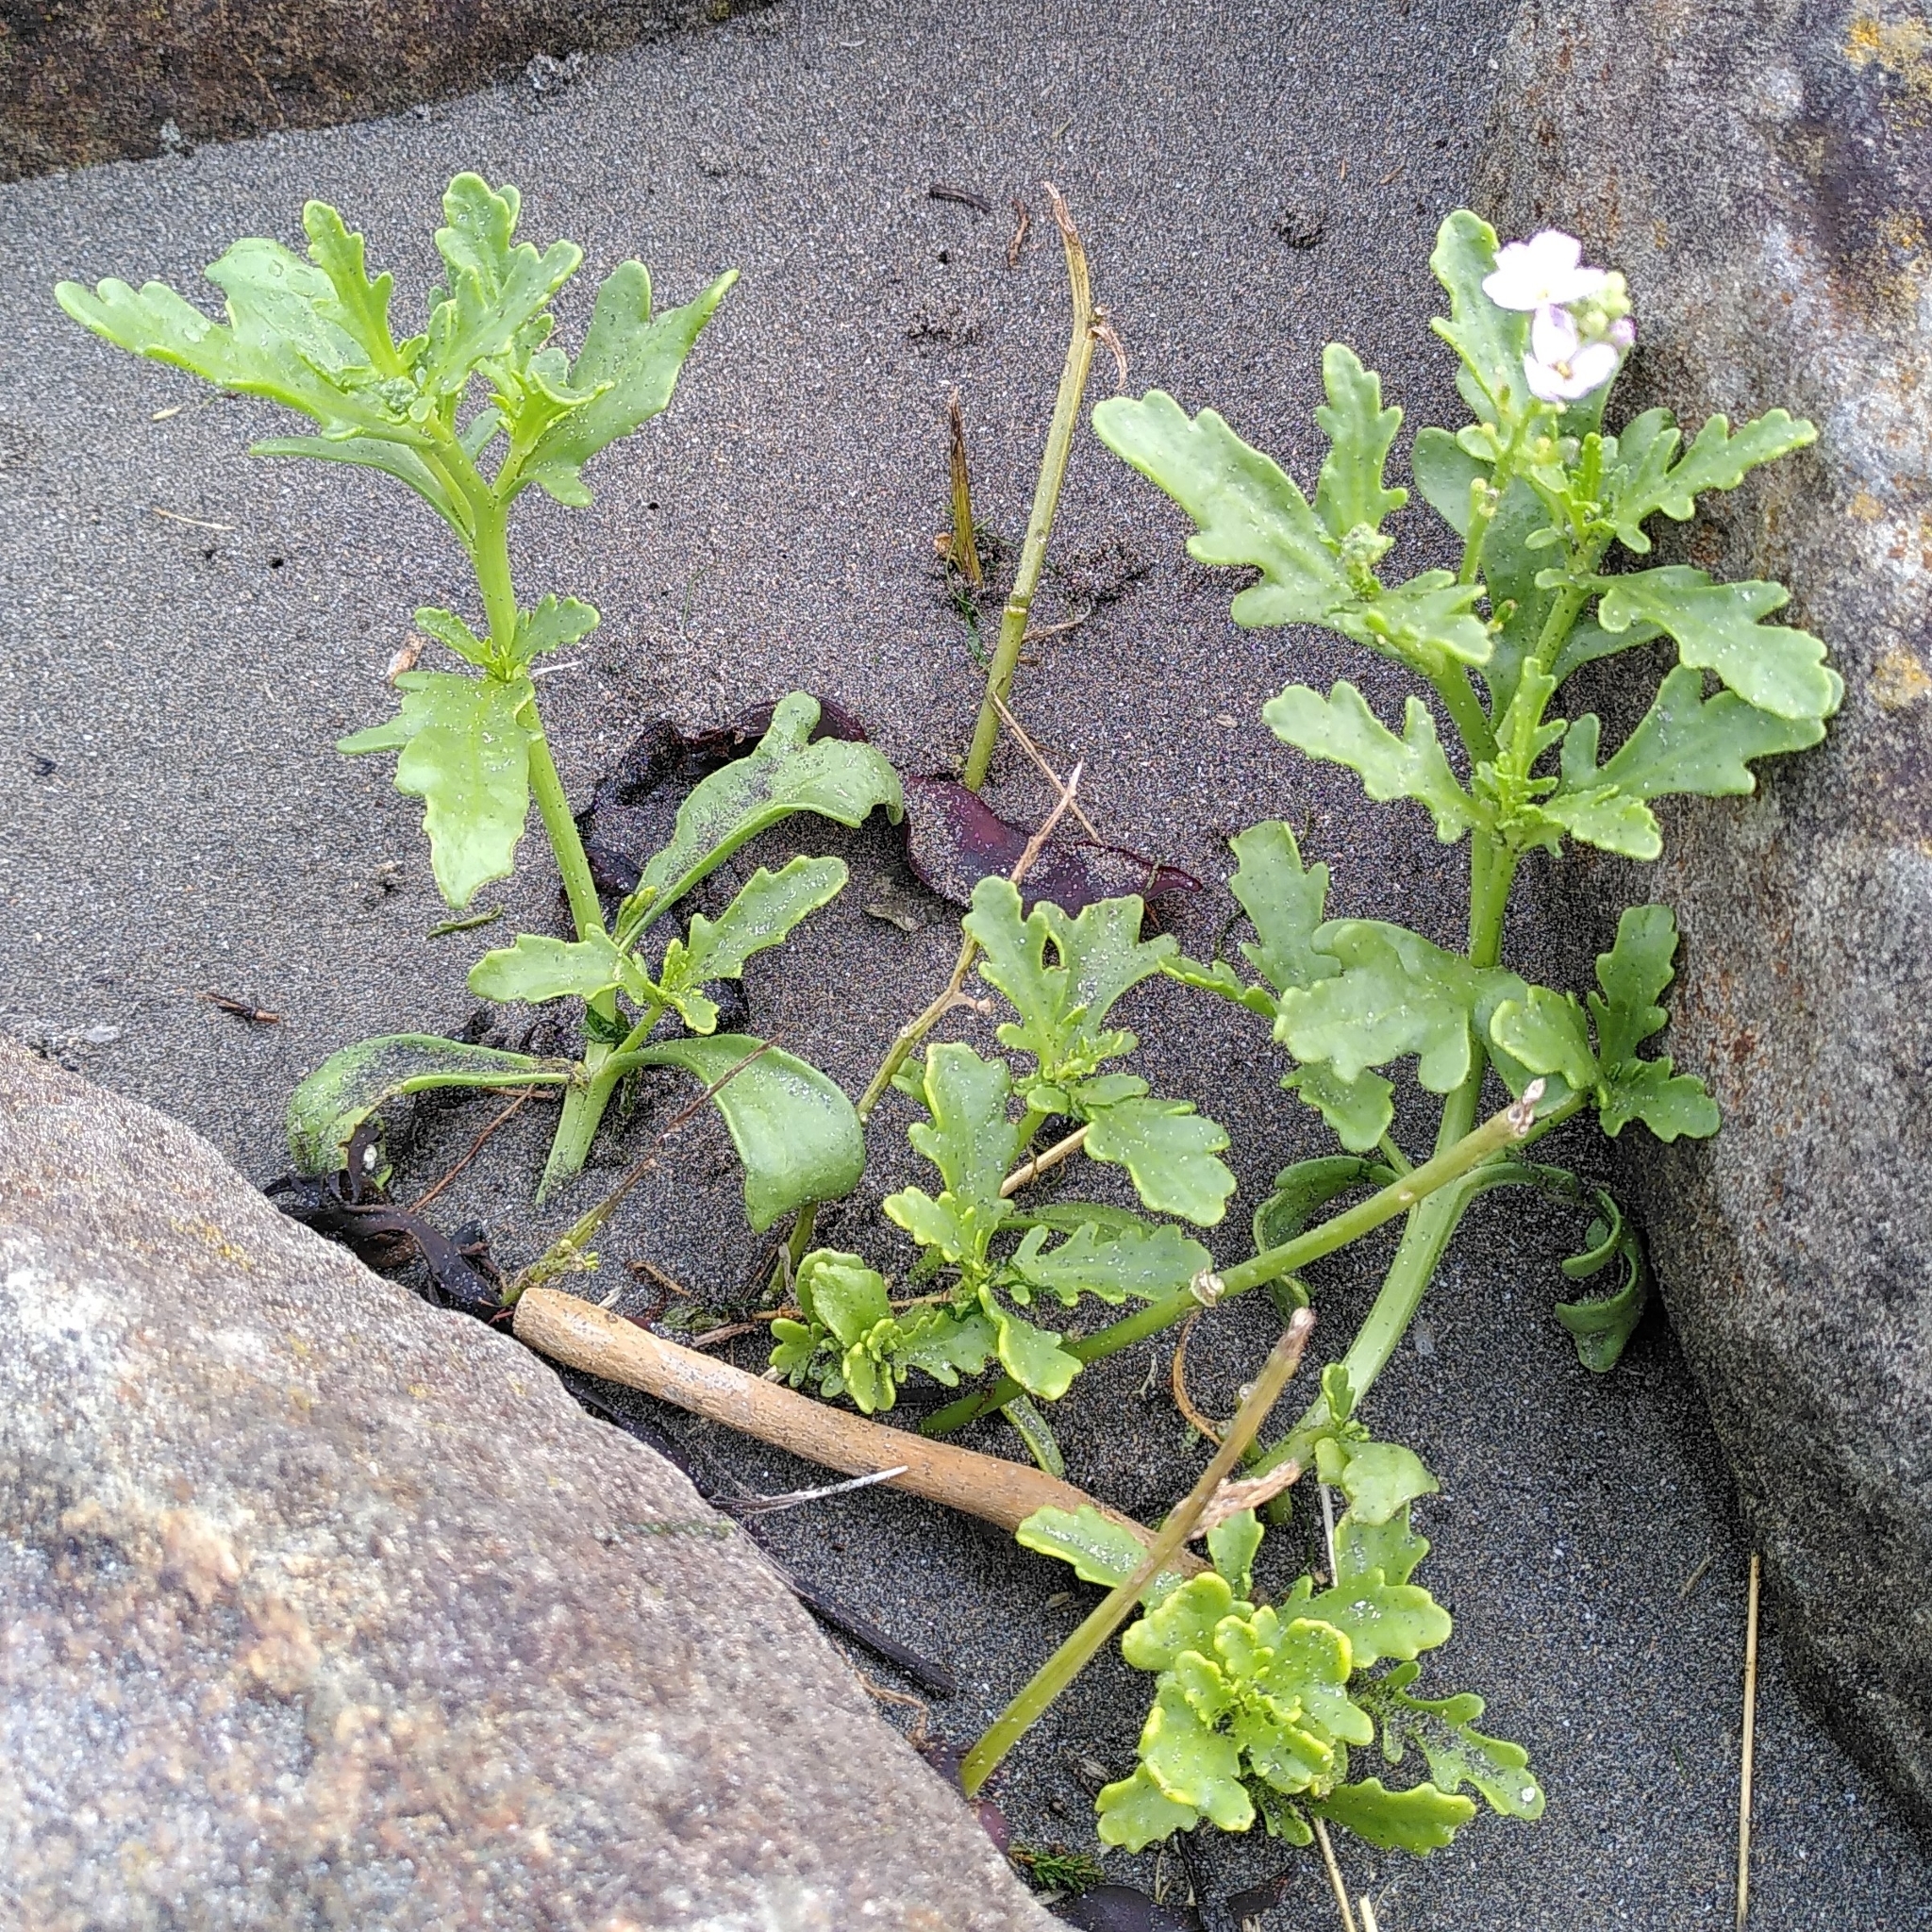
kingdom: Plantae
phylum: Tracheophyta
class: Magnoliopsida
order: Brassicales
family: Brassicaceae
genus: Cakile
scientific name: Cakile maritima
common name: Sea rocket
